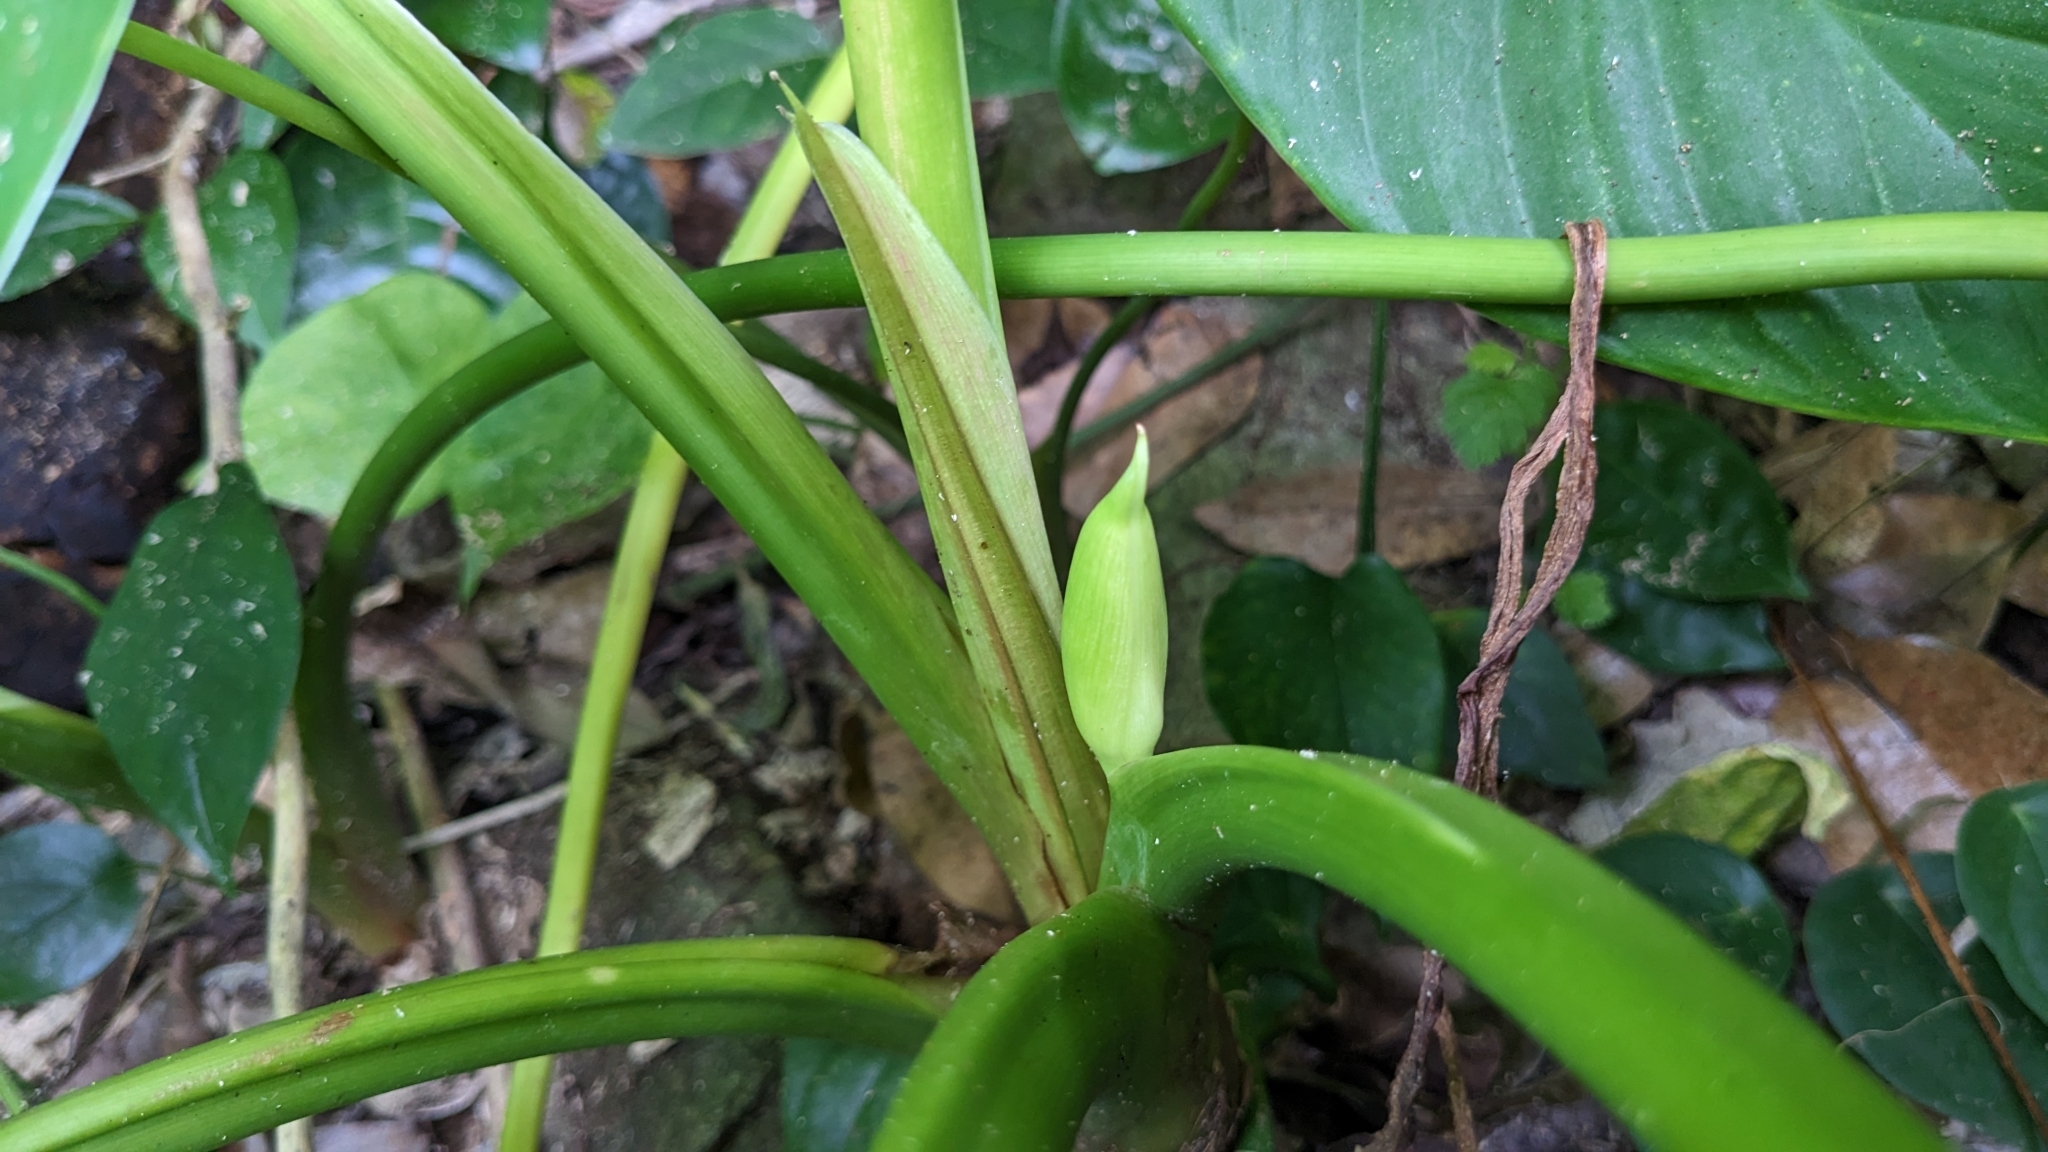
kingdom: Plantae
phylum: Tracheophyta
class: Liliopsida
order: Alismatales
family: Araceae
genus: Homalomena
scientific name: Homalomena philippinensis
